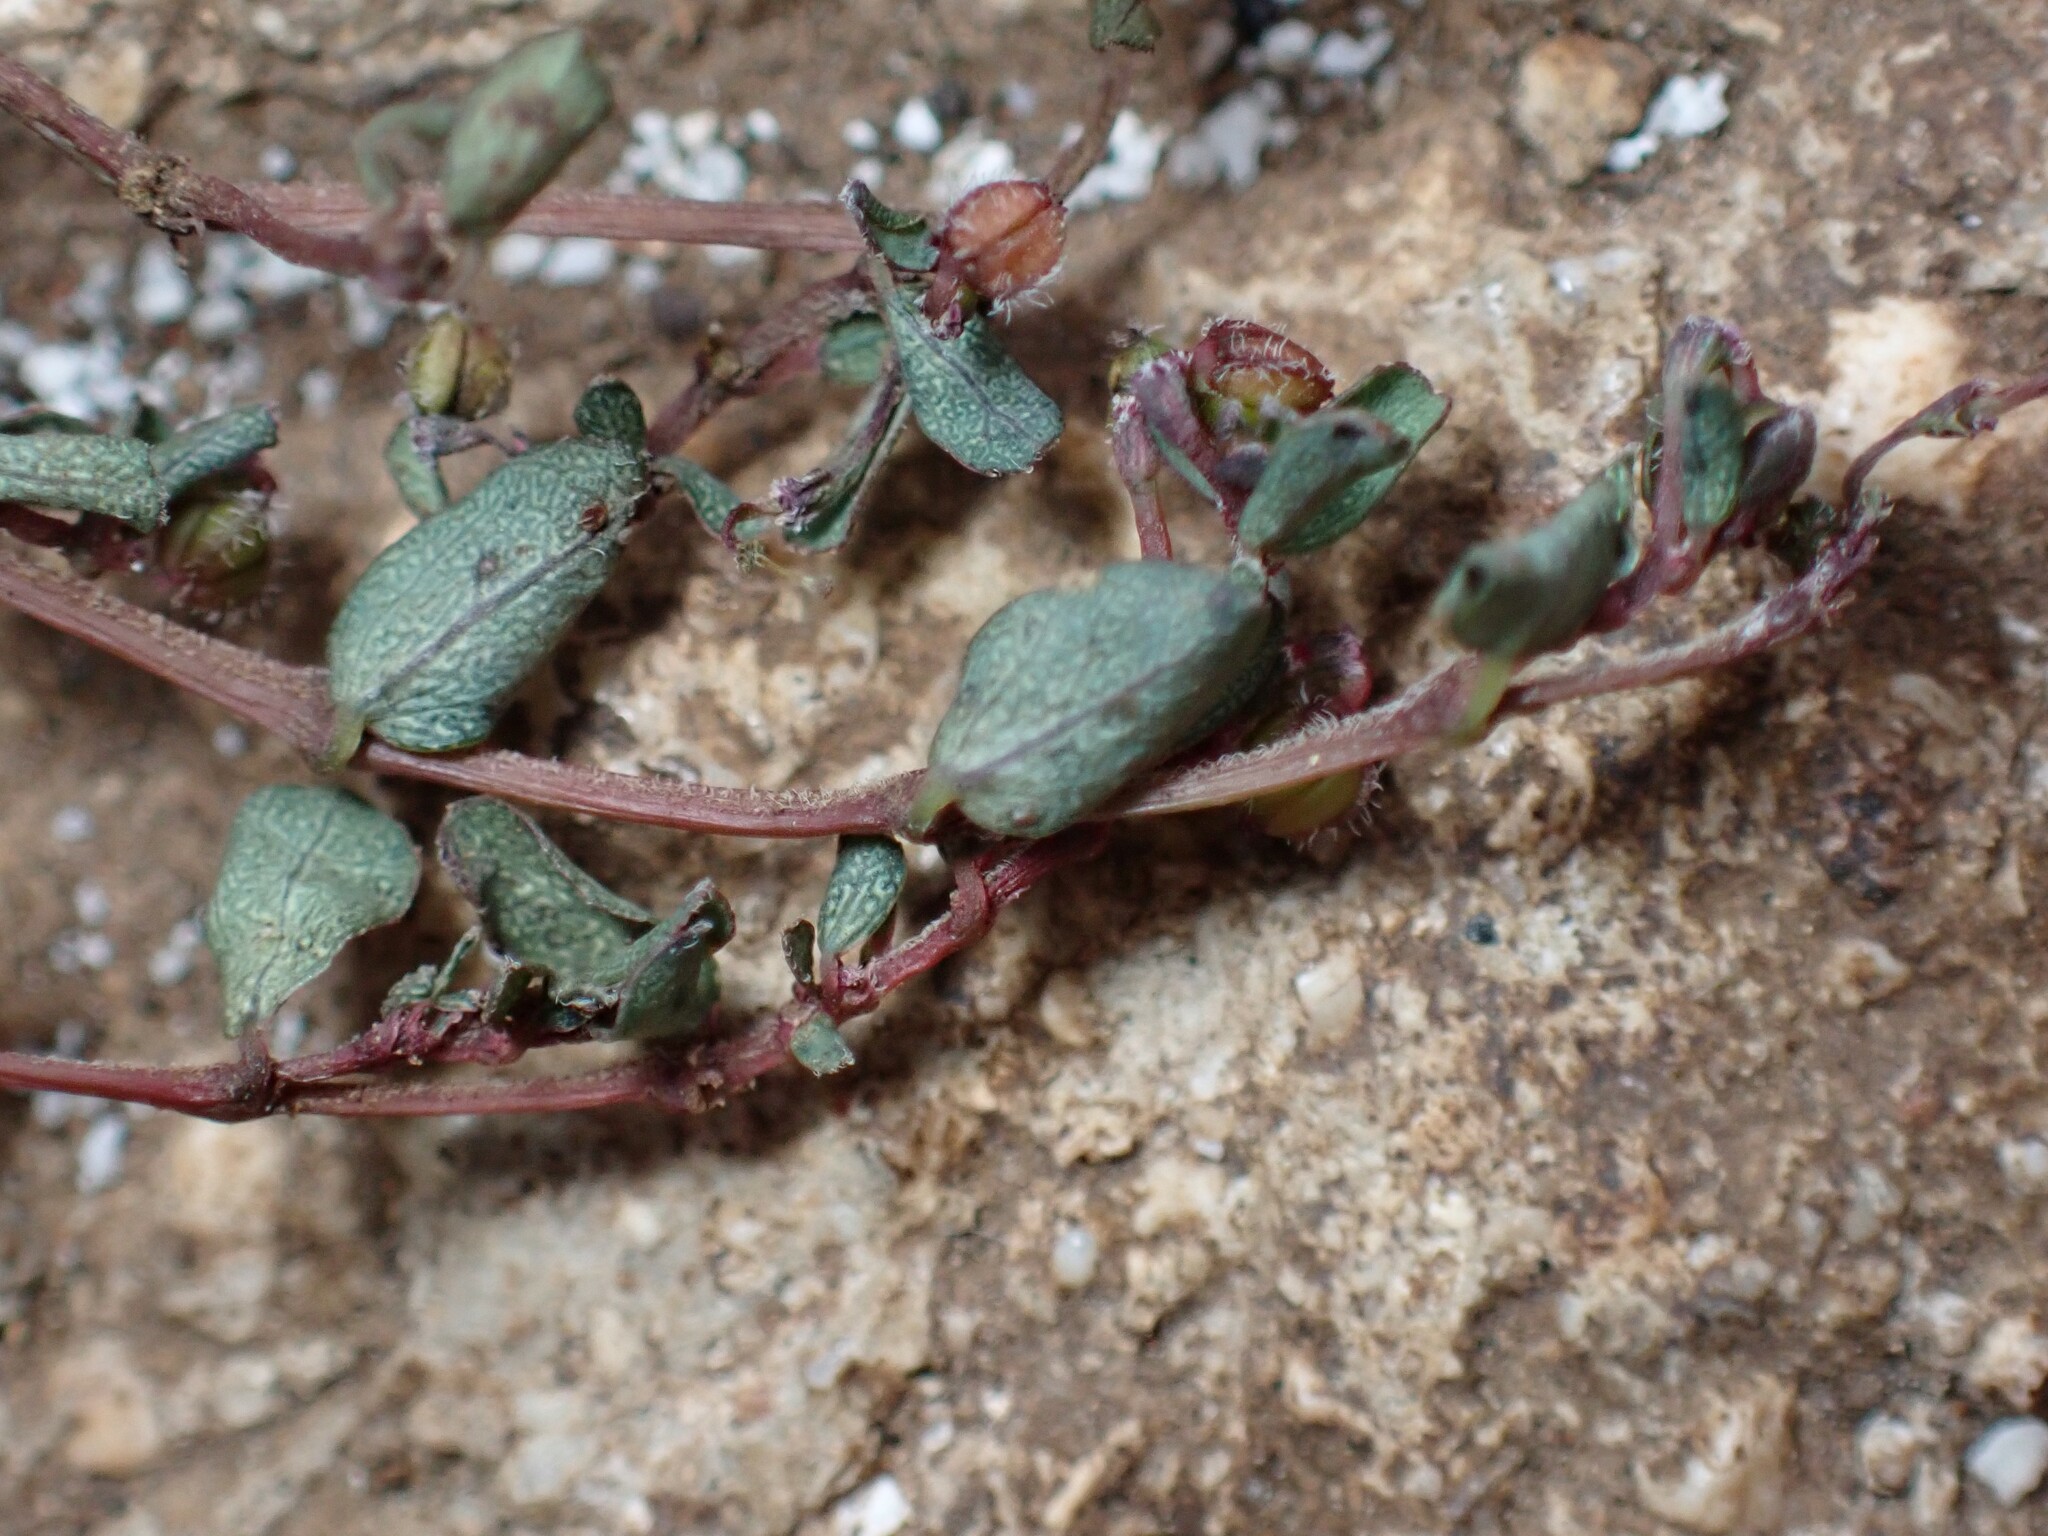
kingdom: Plantae
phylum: Tracheophyta
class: Magnoliopsida
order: Malpighiales
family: Euphorbiaceae
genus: Euphorbia
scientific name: Euphorbia prostrata
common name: Prostrate sandmat
